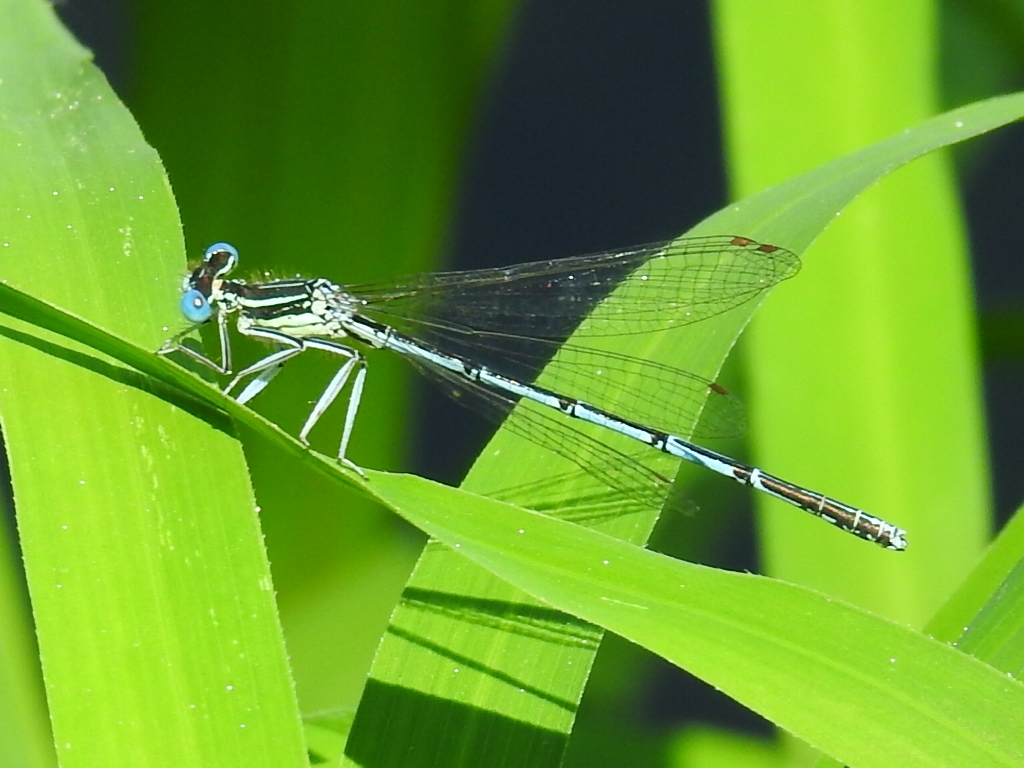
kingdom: Animalia
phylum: Arthropoda
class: Insecta
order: Odonata
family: Platycnemididae
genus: Platycnemis
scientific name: Platycnemis pennipes
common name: White-legged damselfly
